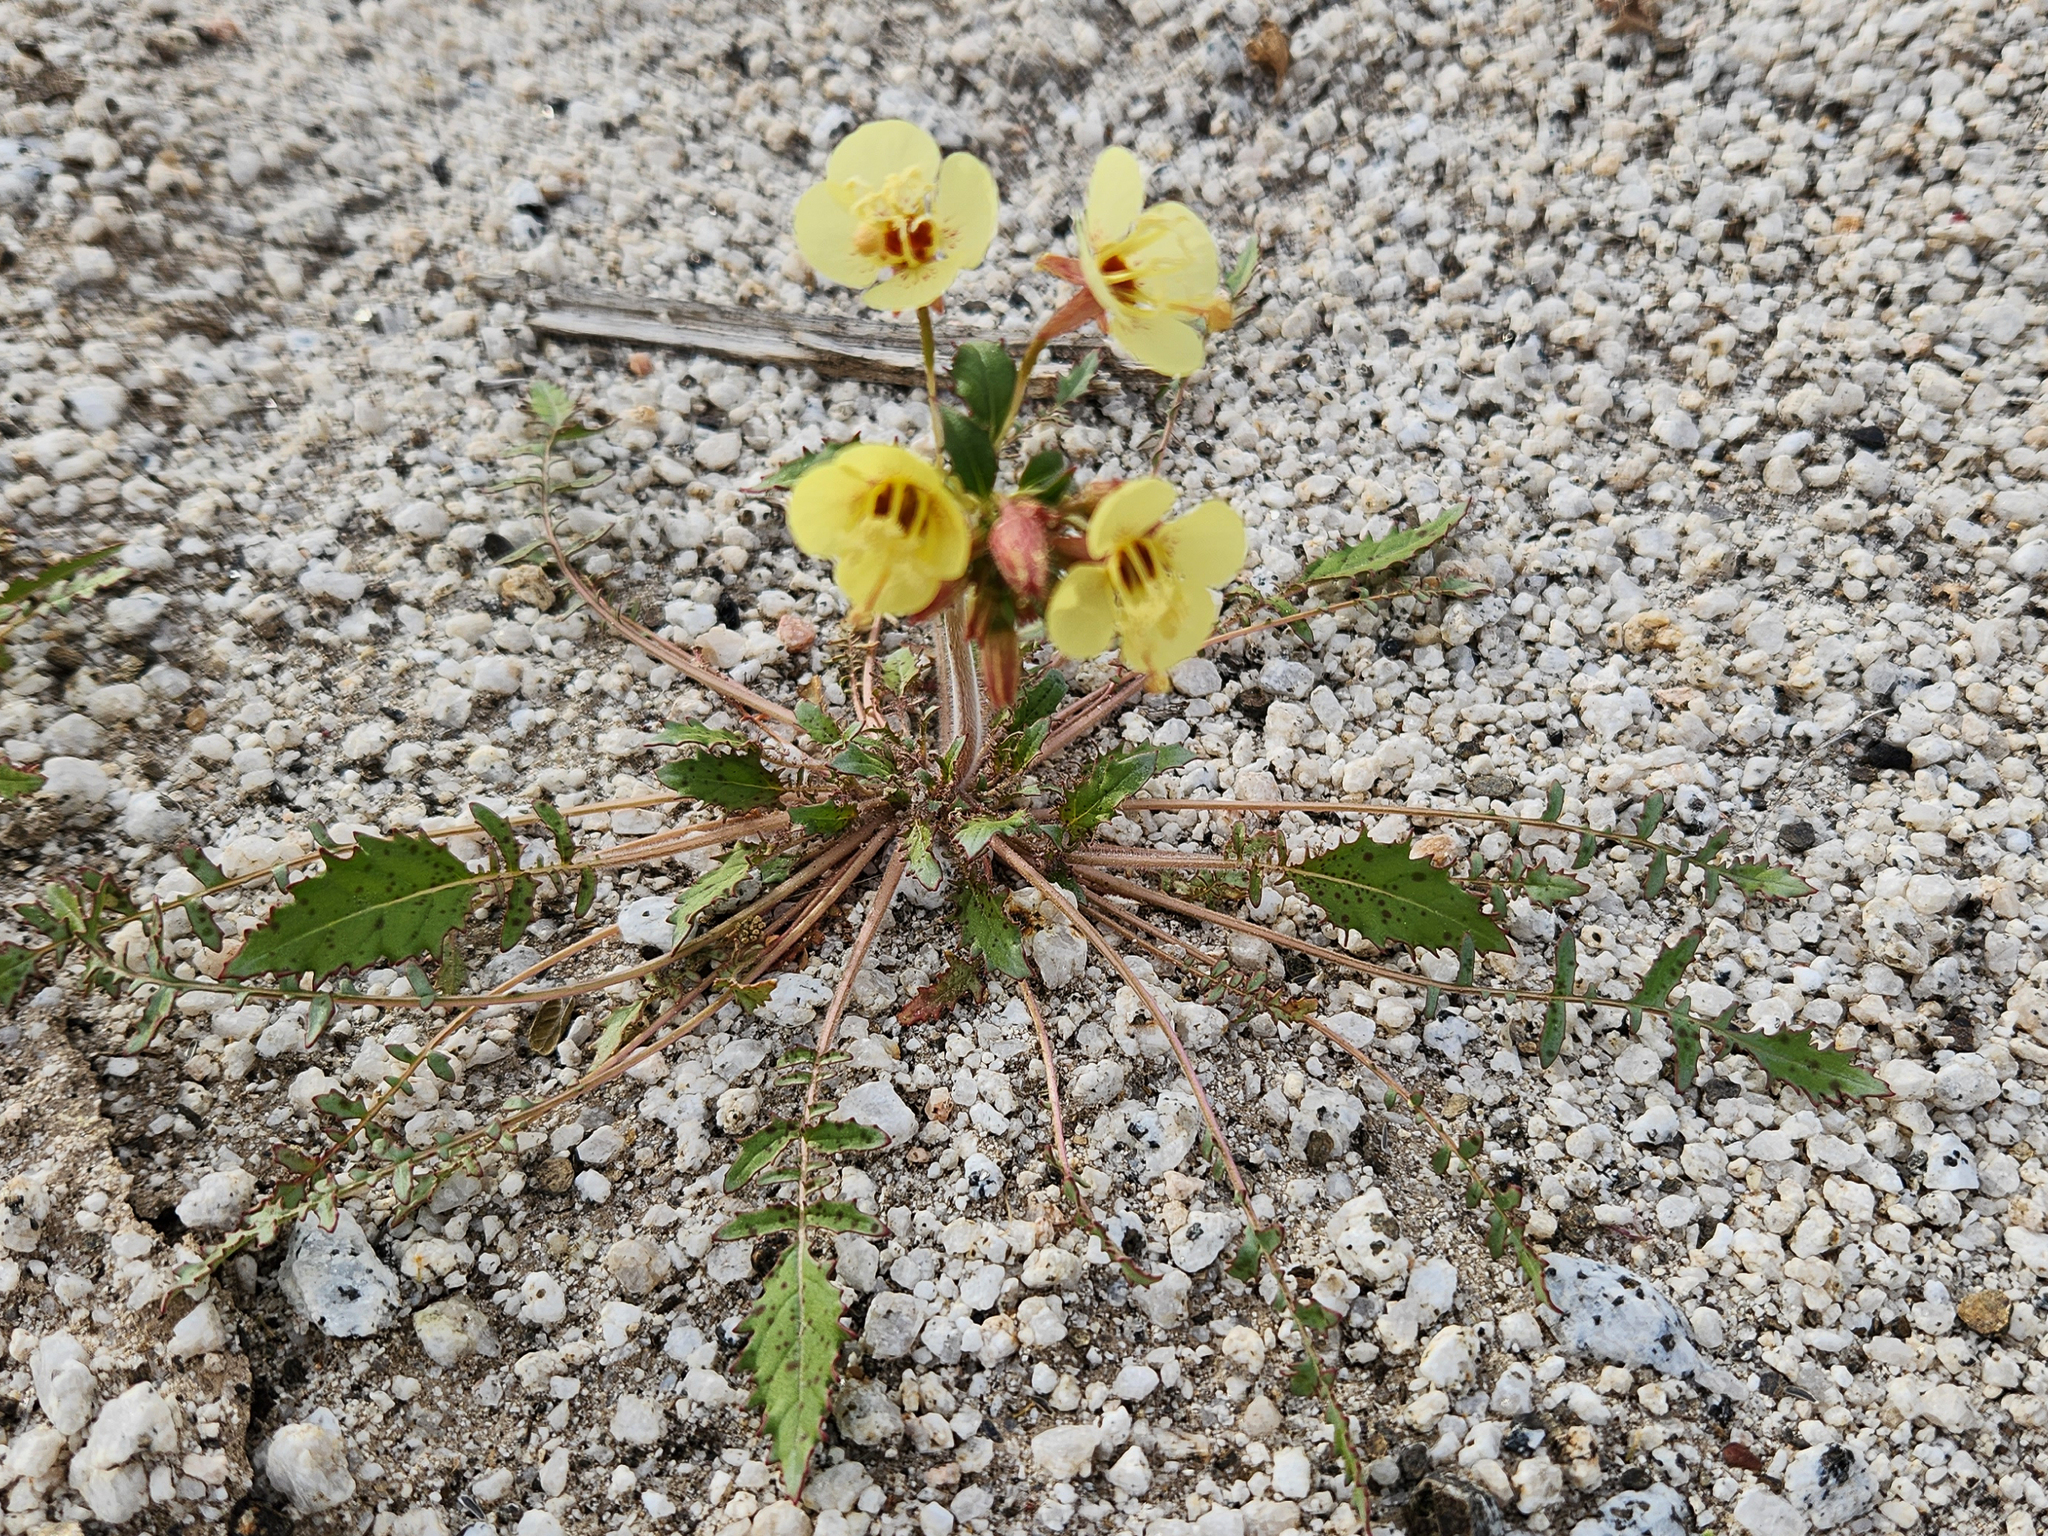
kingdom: Plantae
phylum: Tracheophyta
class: Magnoliopsida
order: Myrtales
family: Onagraceae
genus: Chylismia
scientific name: Chylismia claviformis
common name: Browneyes
